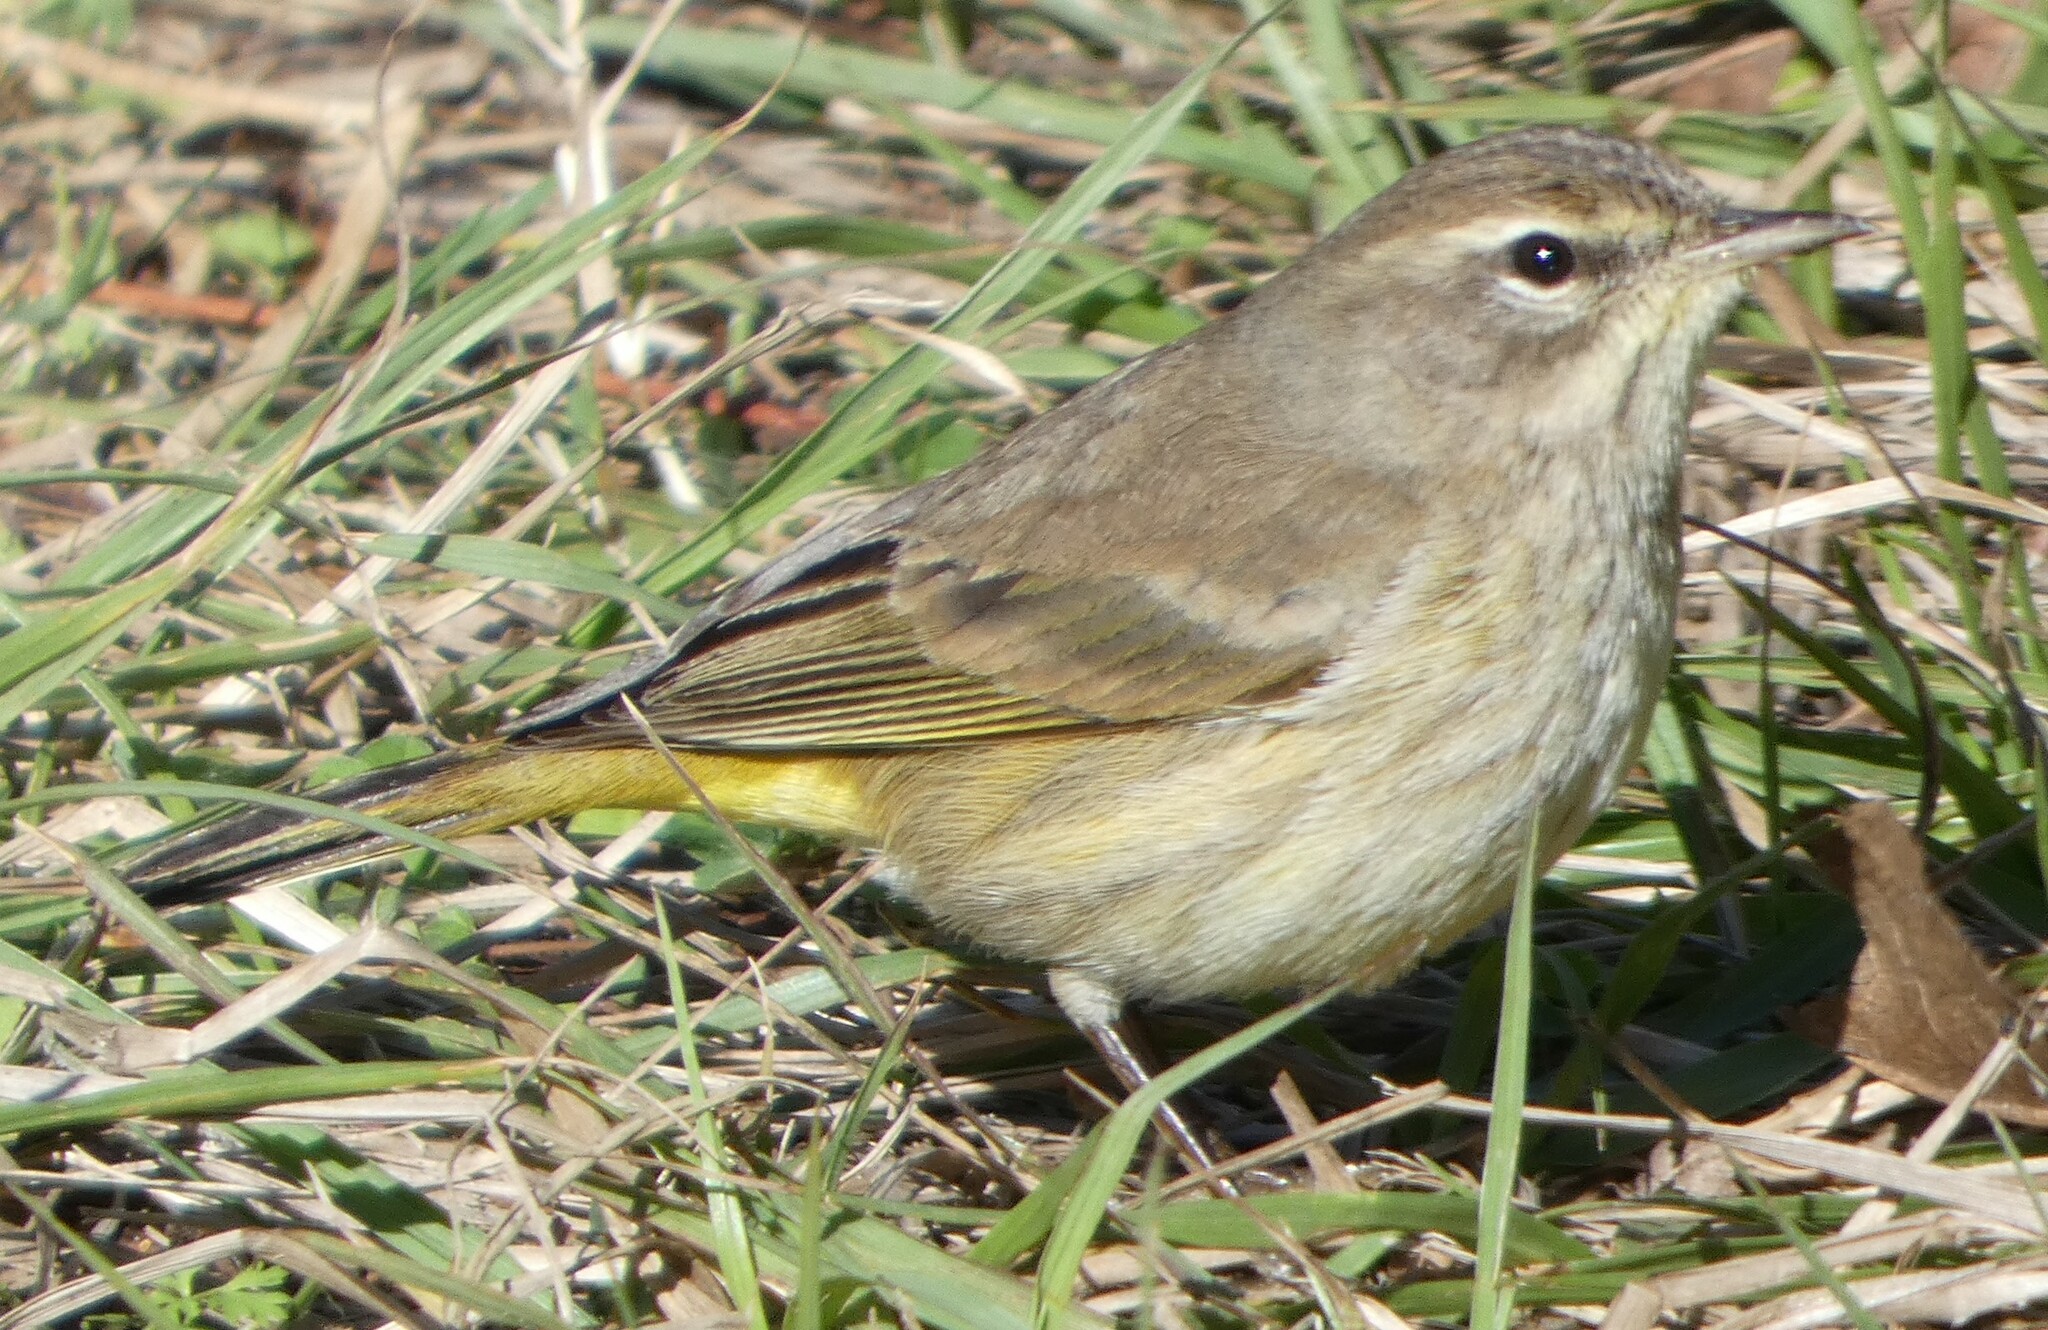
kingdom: Animalia
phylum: Chordata
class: Aves
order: Passeriformes
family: Parulidae
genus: Setophaga
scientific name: Setophaga palmarum
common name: Palm warbler
